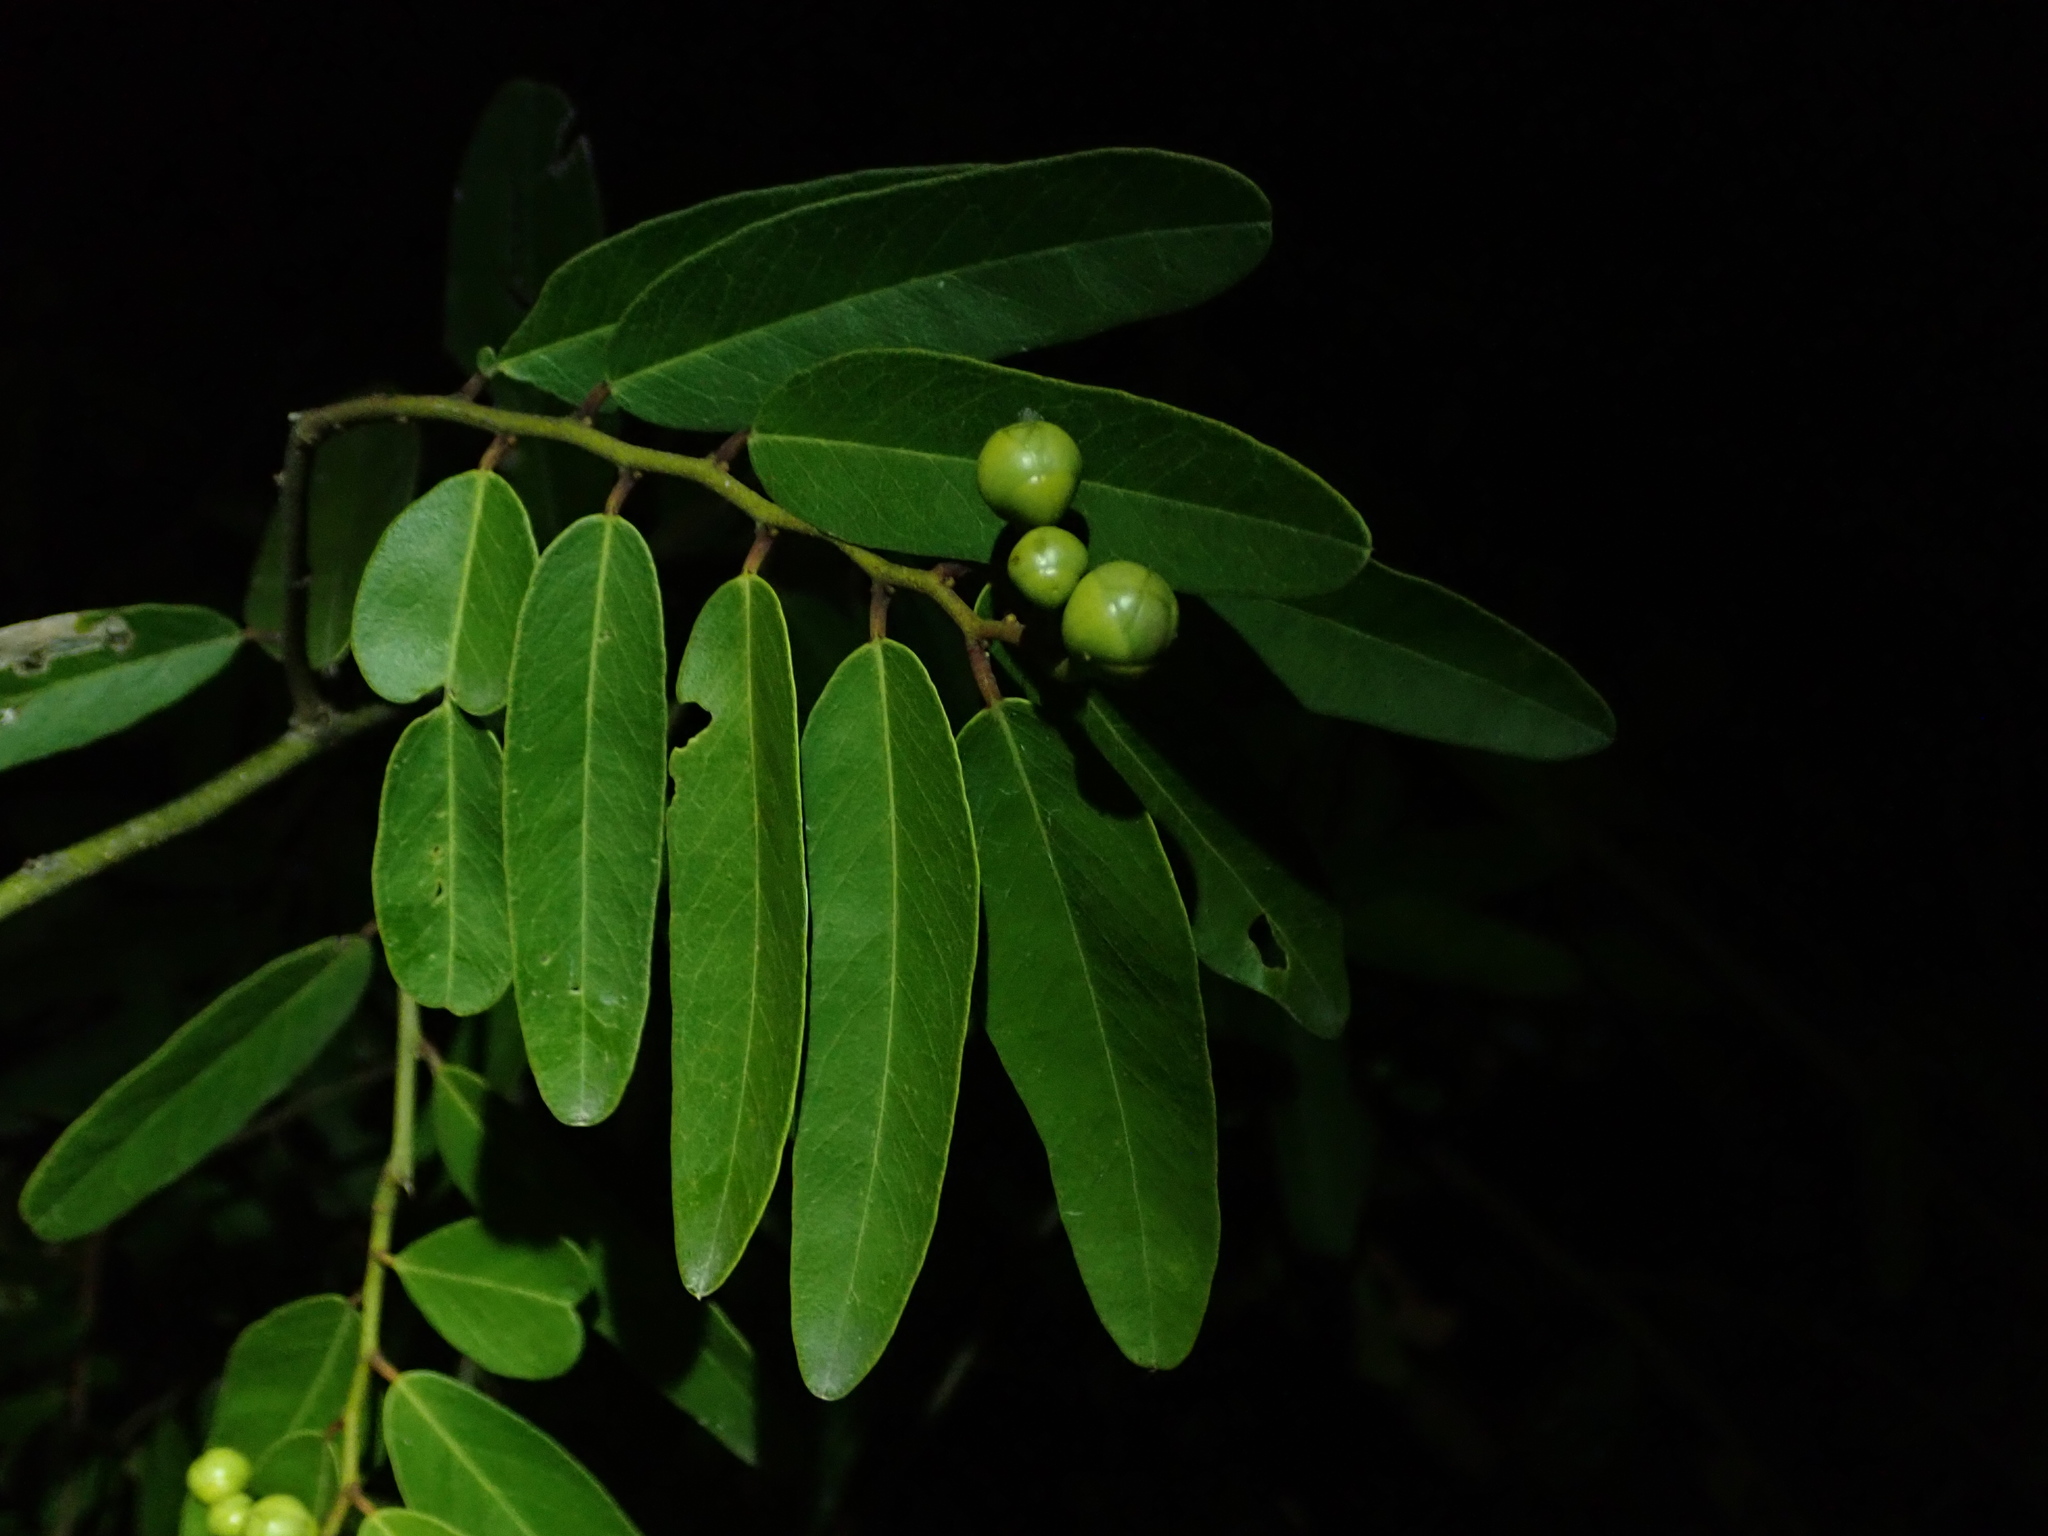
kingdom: Plantae
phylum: Tracheophyta
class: Magnoliopsida
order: Brassicales
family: Capparaceae
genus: Cynophalla
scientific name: Cynophalla flexuosa
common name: Capertree
